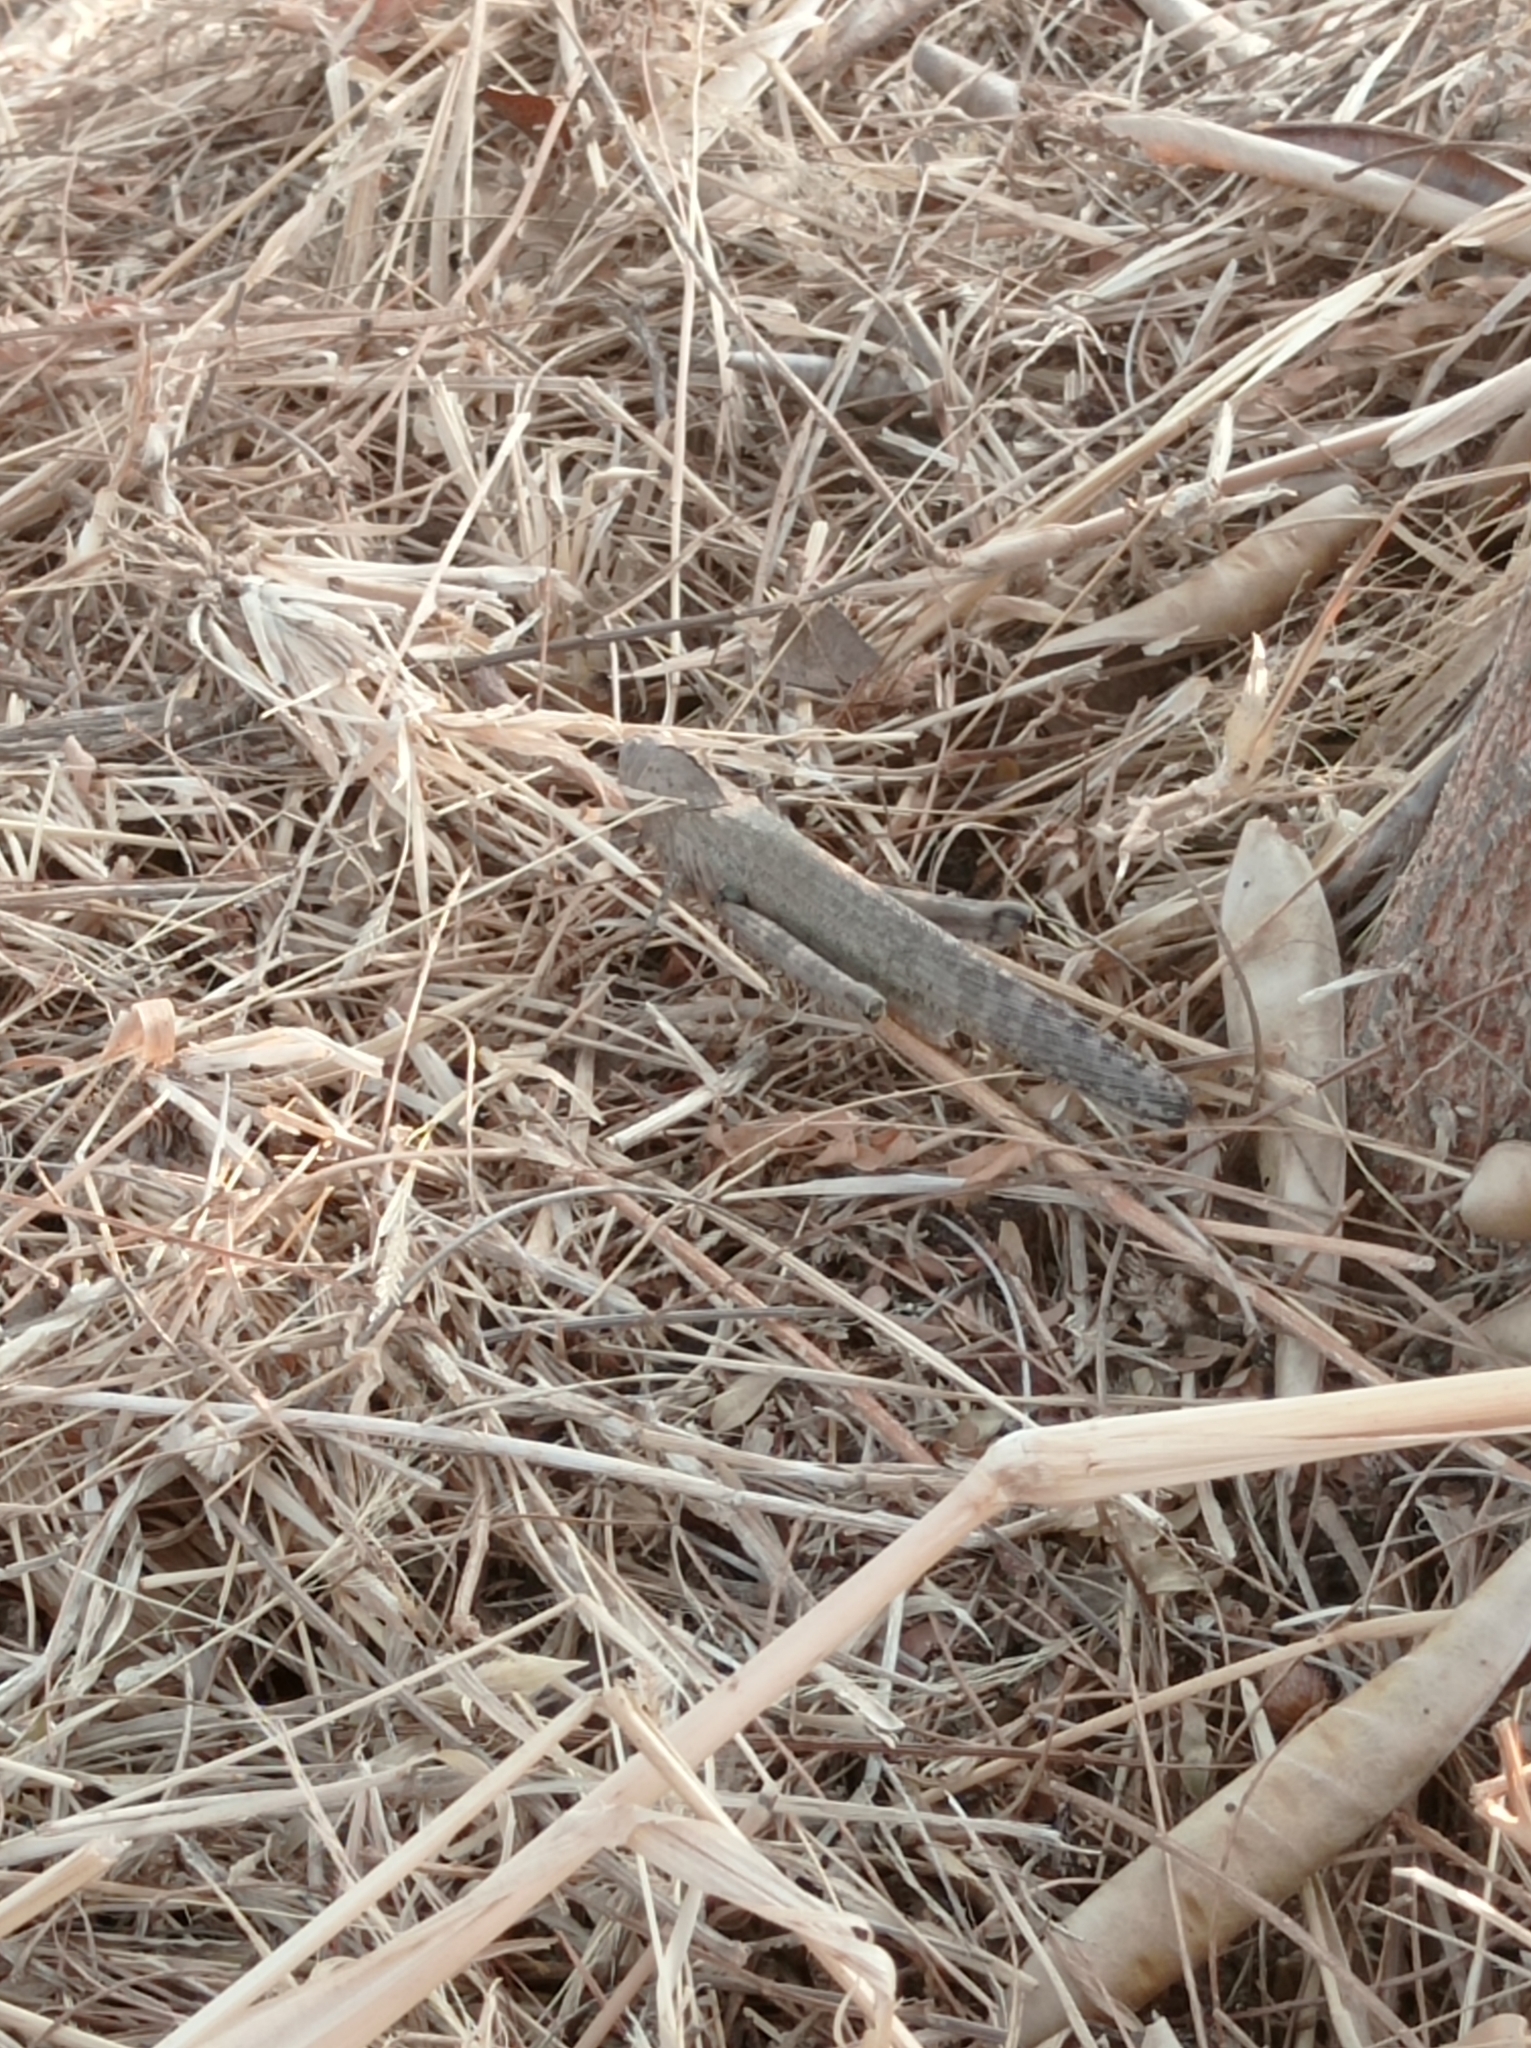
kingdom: Animalia
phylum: Arthropoda
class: Insecta
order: Orthoptera
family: Acrididae
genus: Orthacanthacris
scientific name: Orthacanthacris humilicrus
